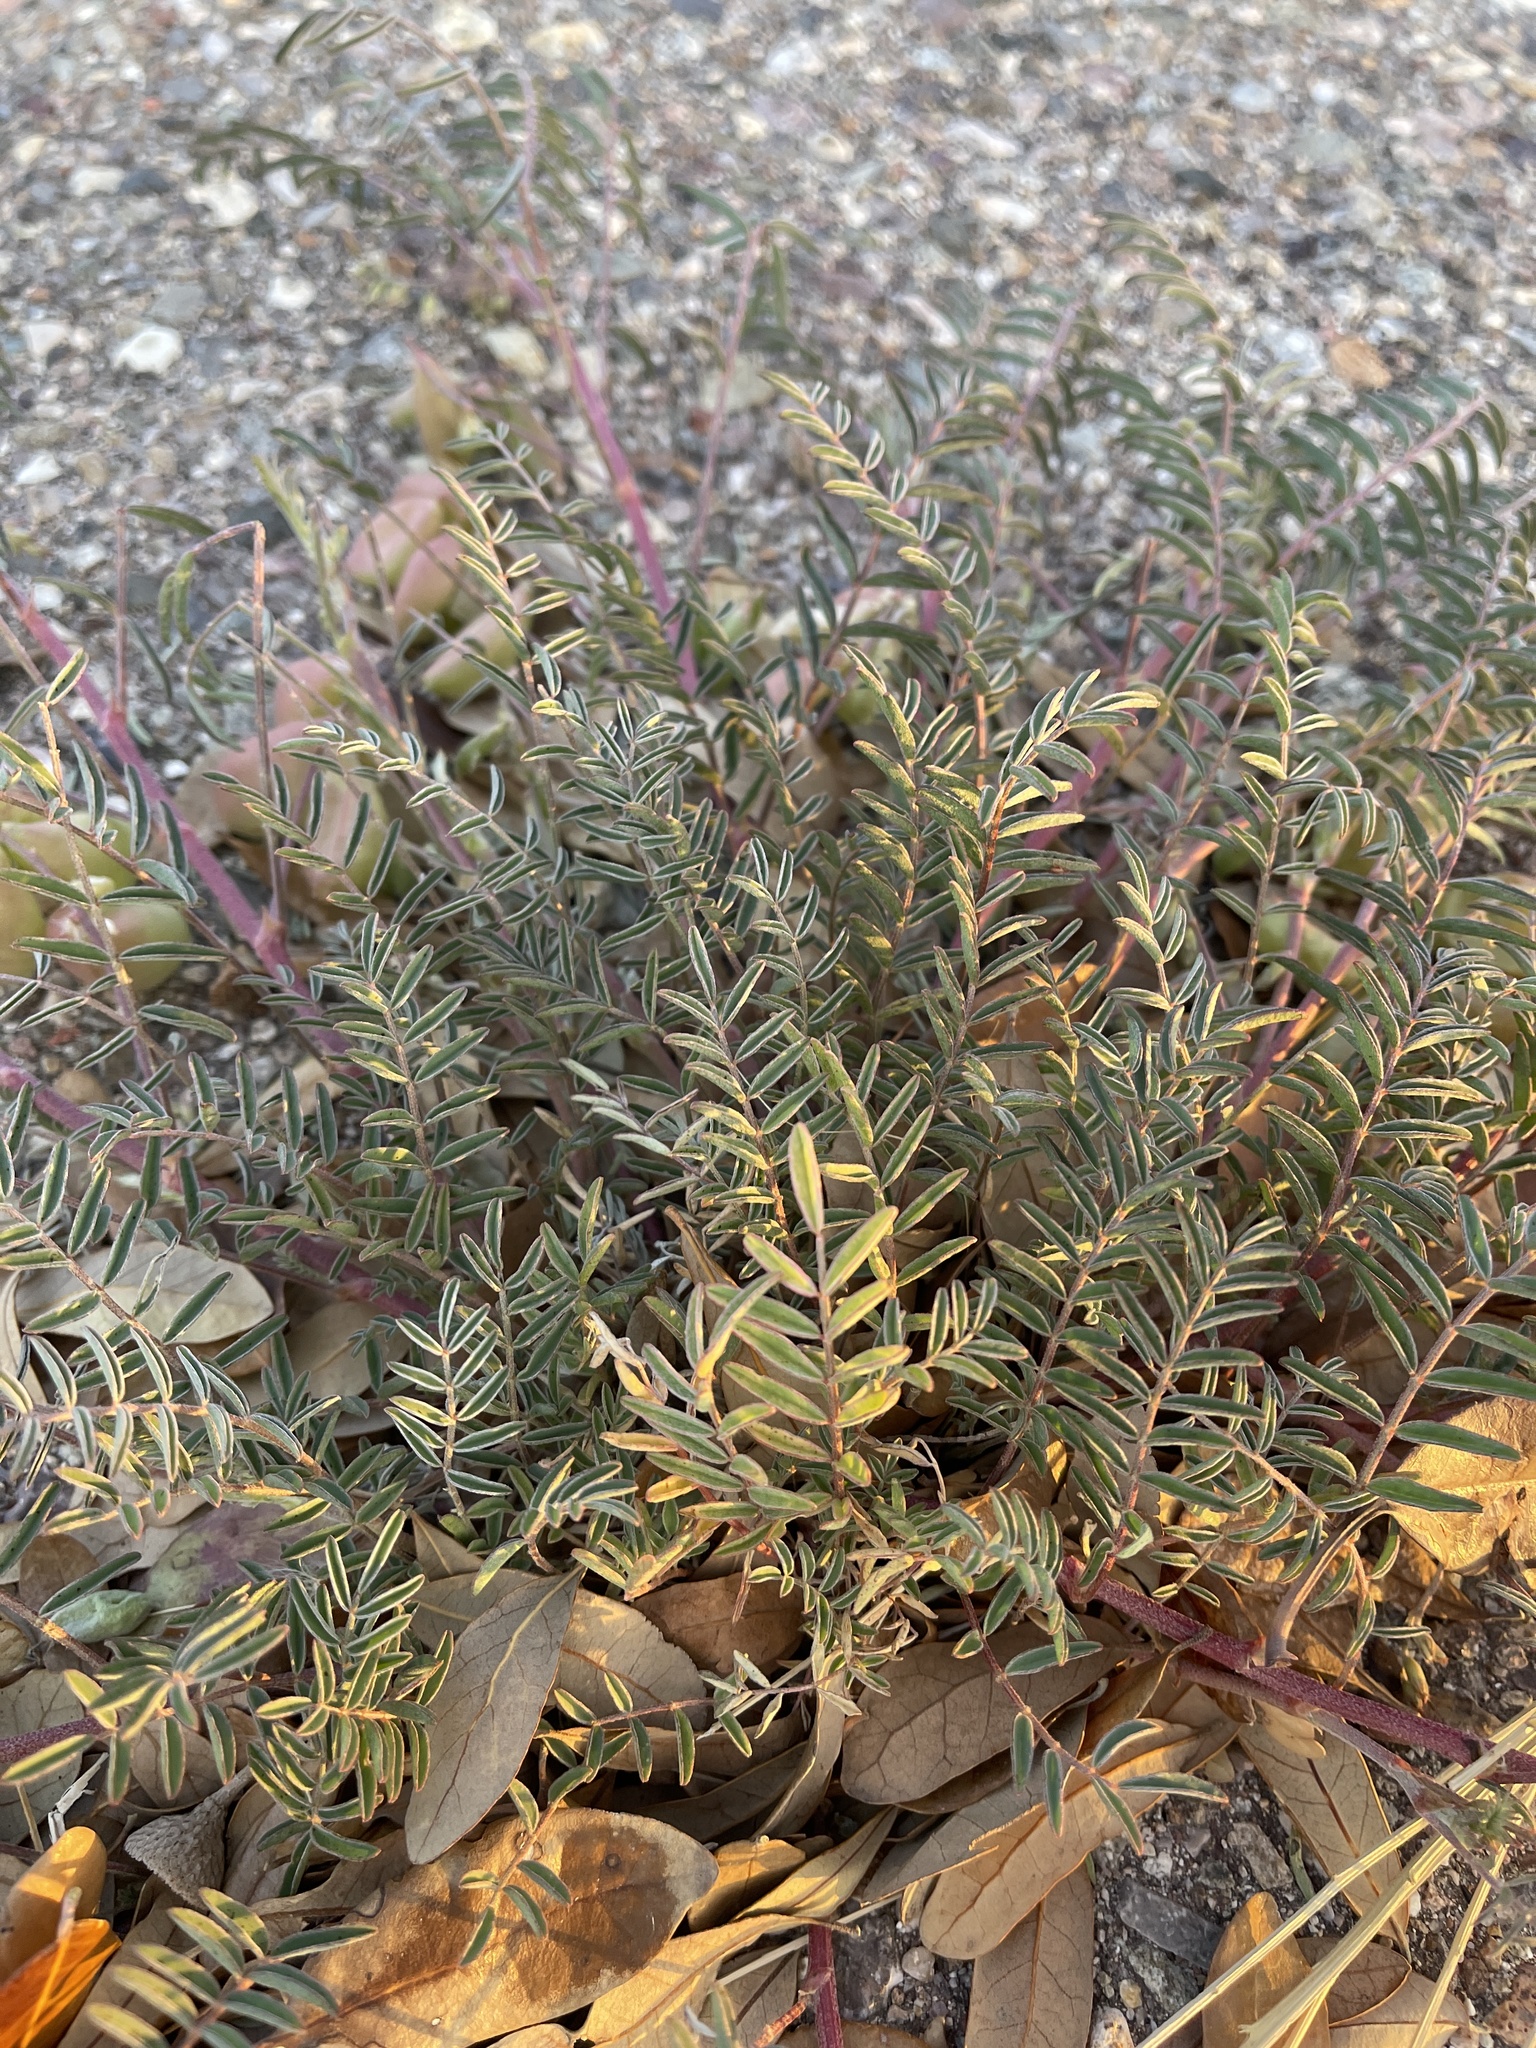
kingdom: Plantae
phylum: Tracheophyta
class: Magnoliopsida
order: Fabales
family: Fabaceae
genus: Astragalus
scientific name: Astragalus allochrous
